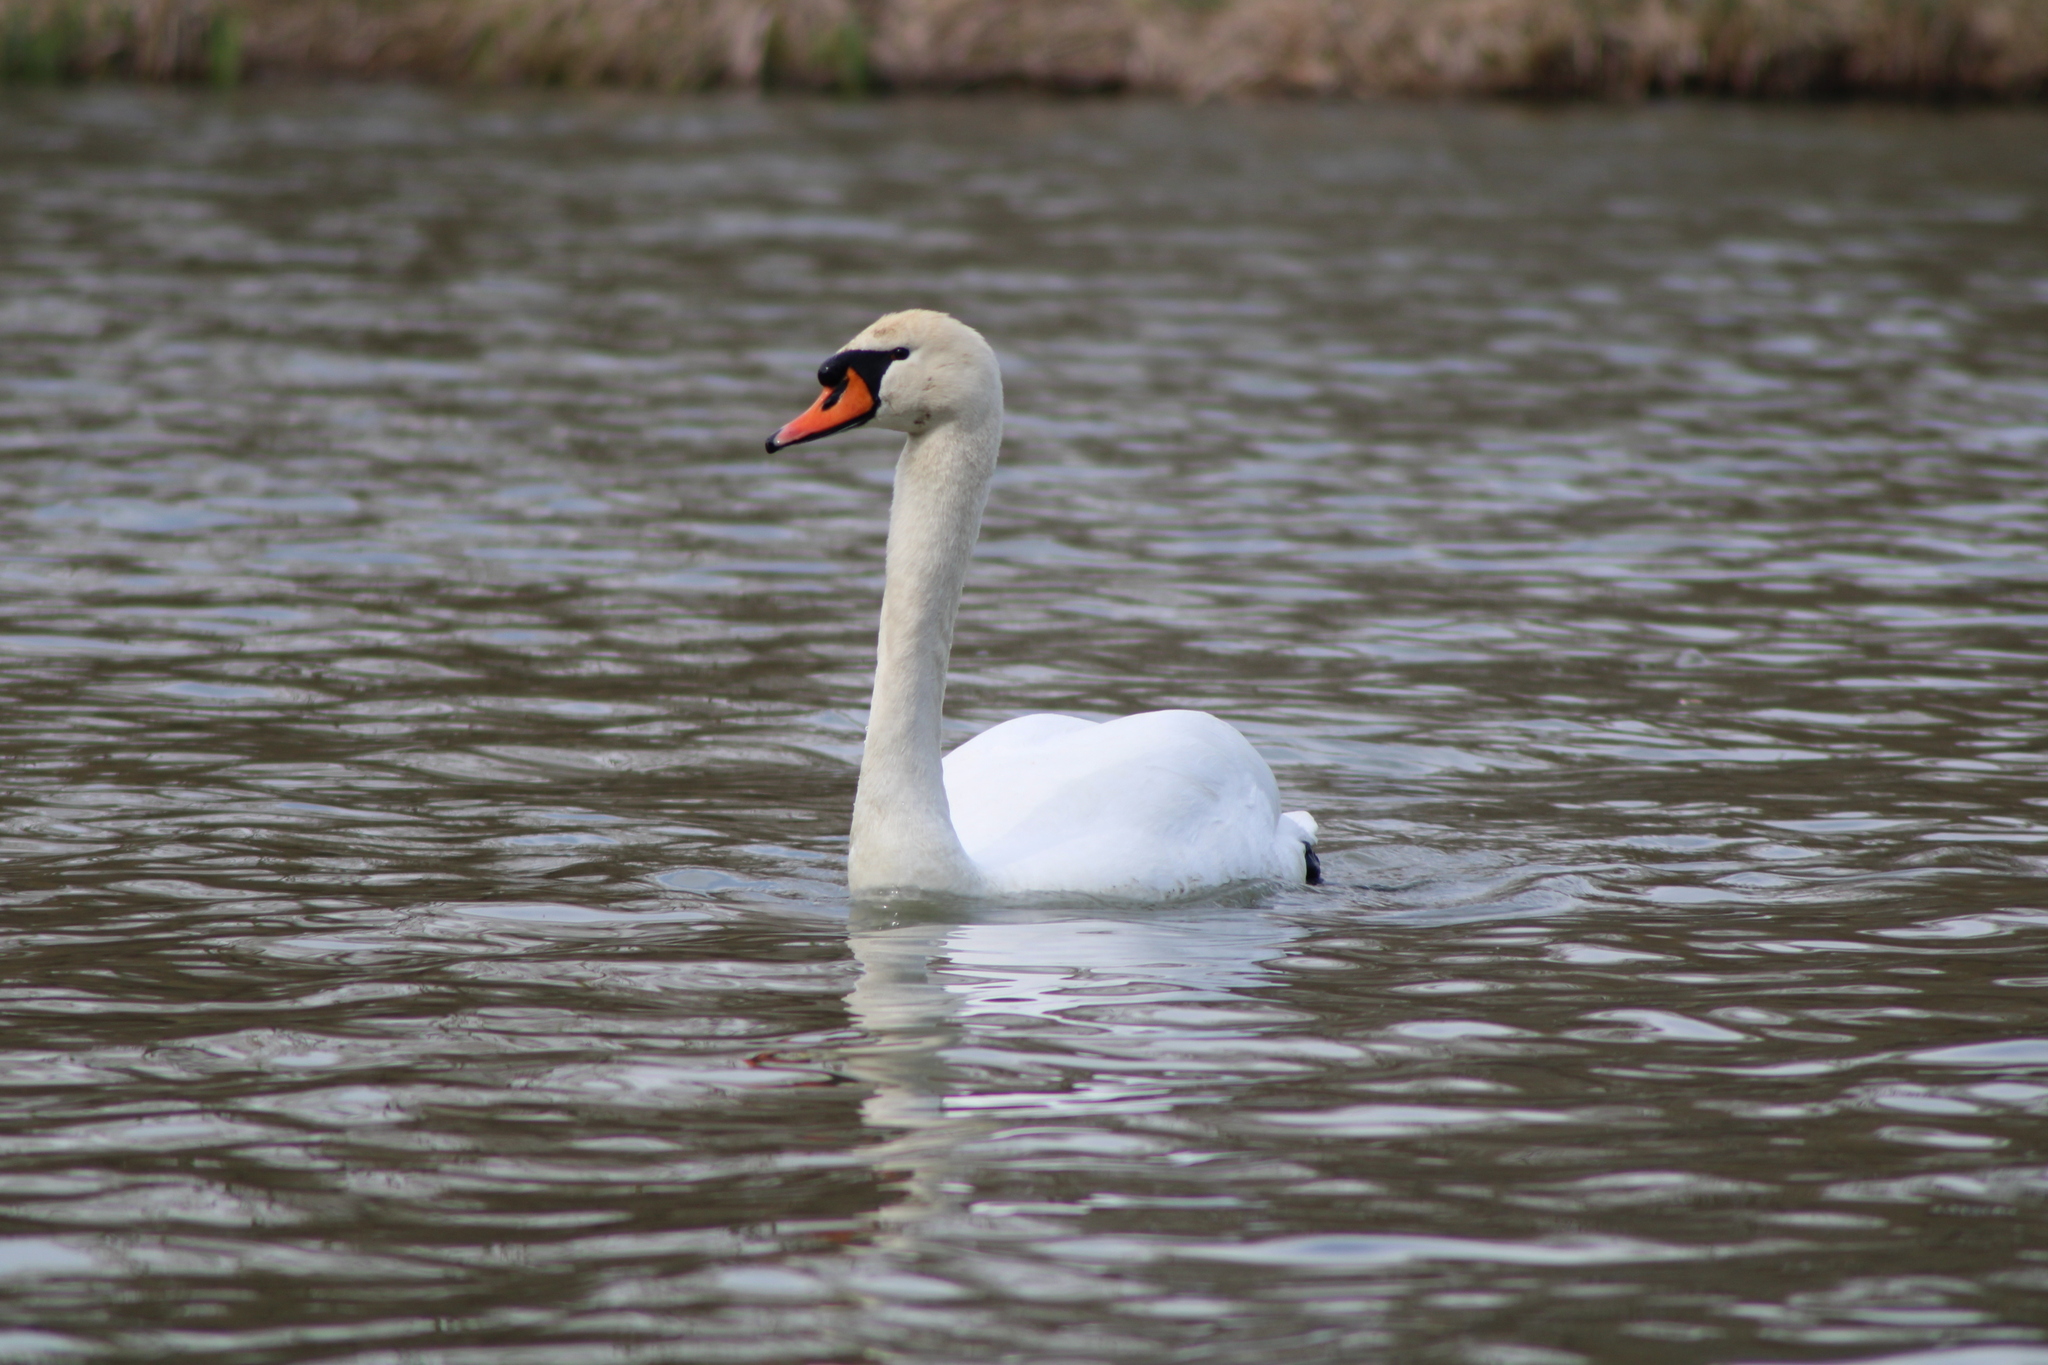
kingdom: Animalia
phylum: Chordata
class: Aves
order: Anseriformes
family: Anatidae
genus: Cygnus
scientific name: Cygnus olor
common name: Mute swan
